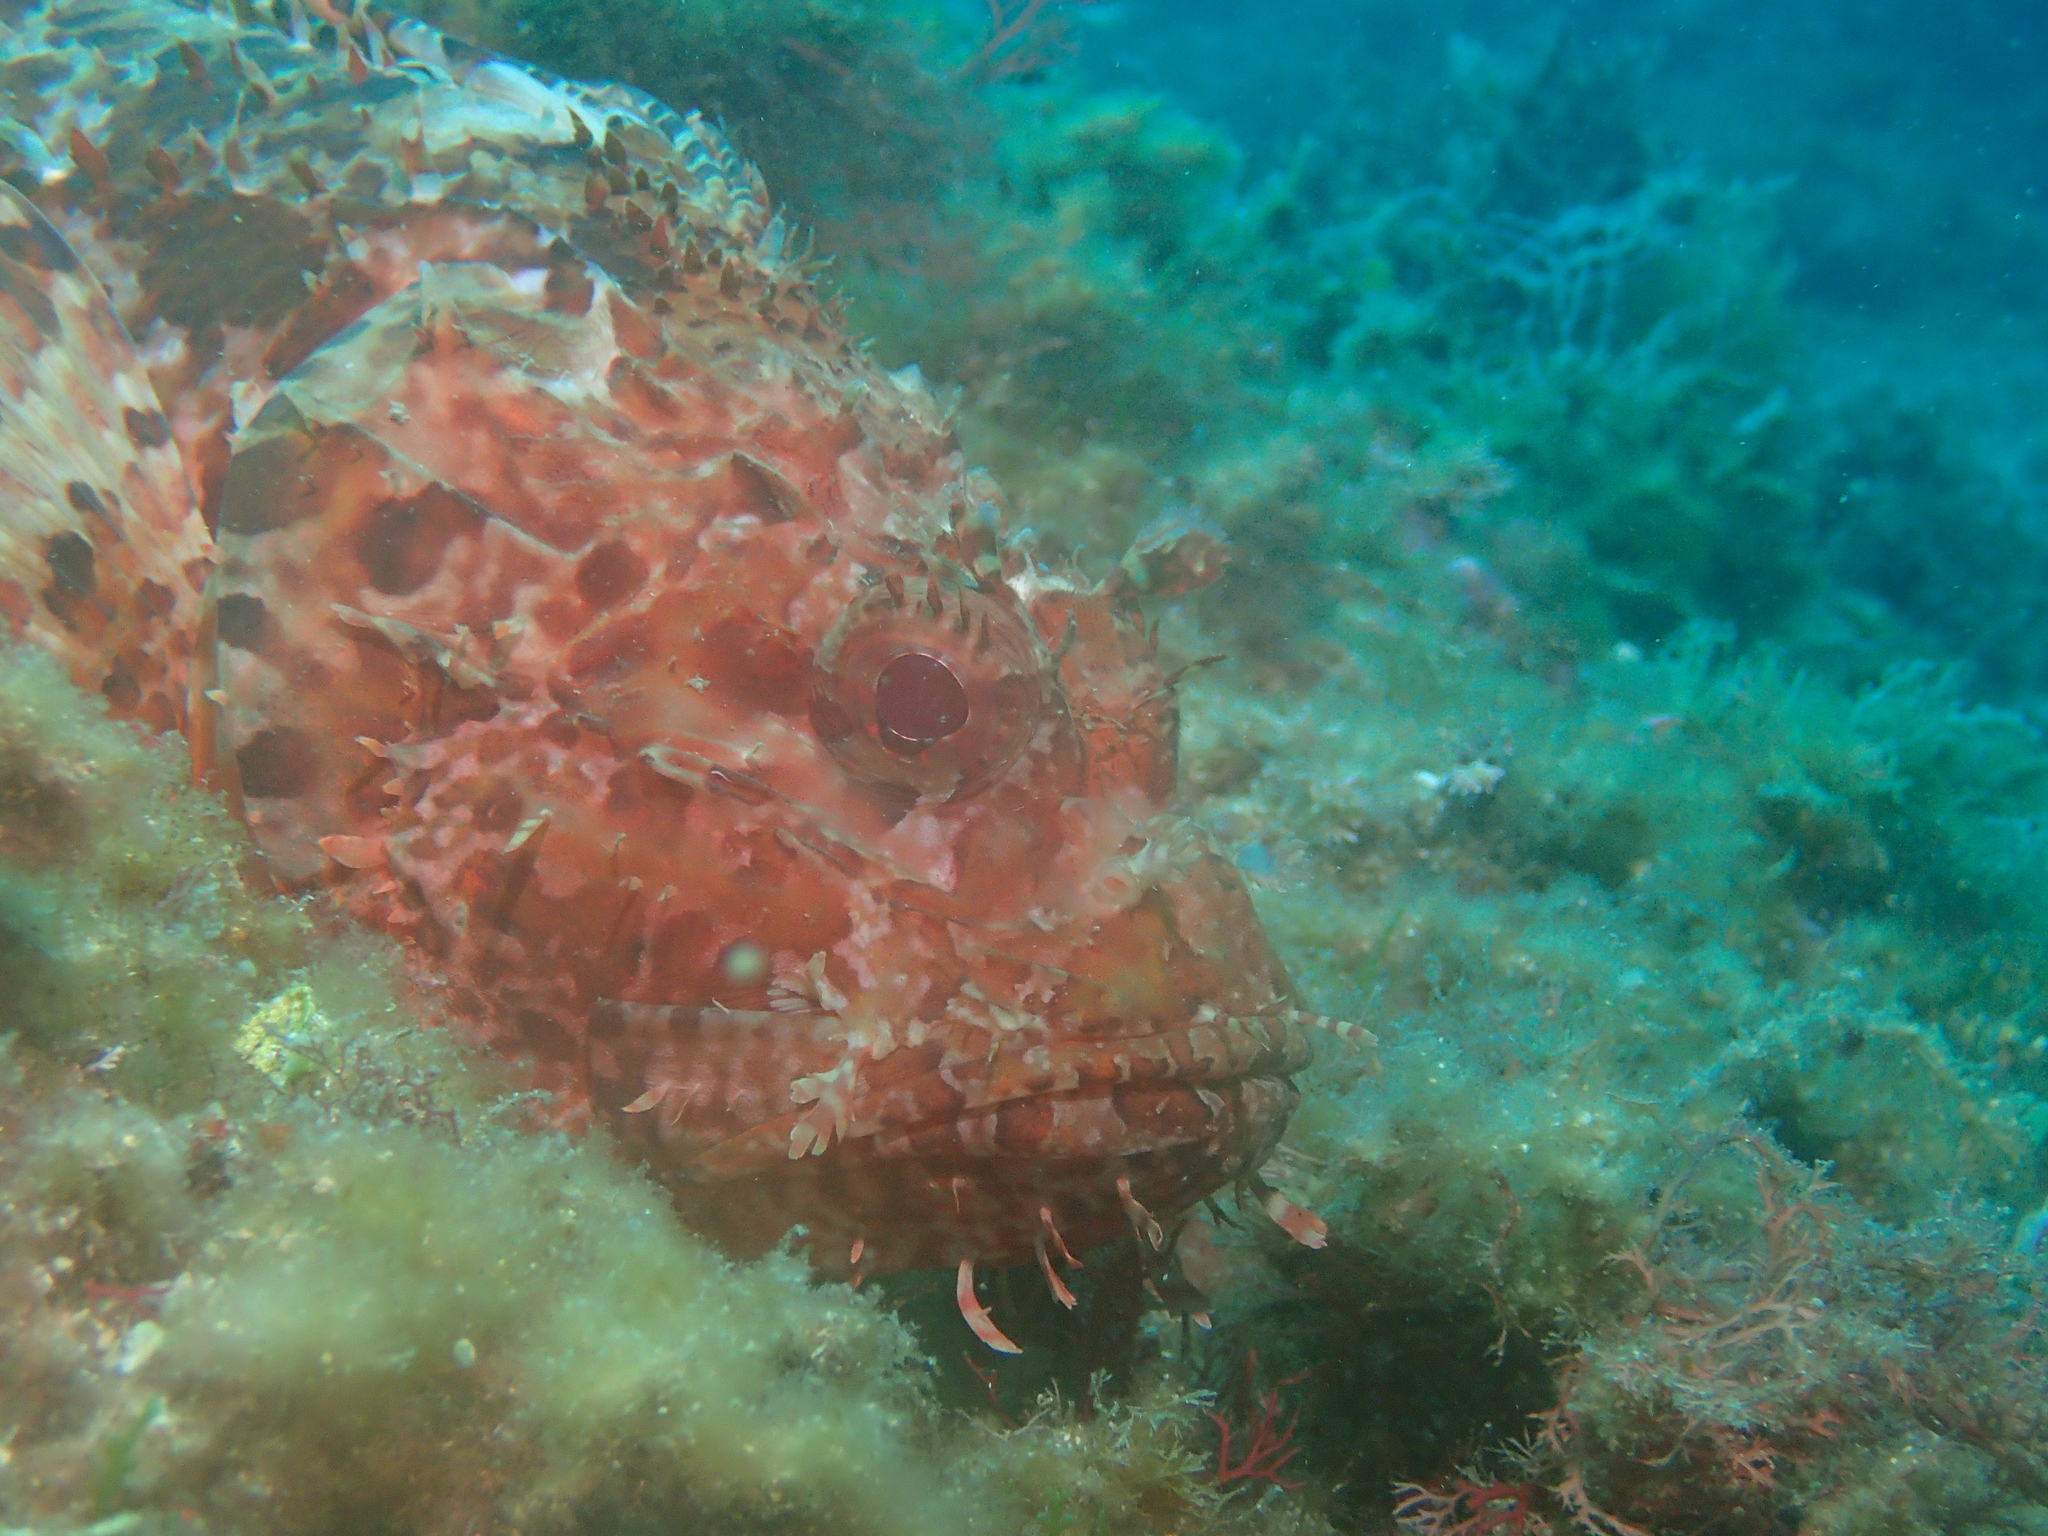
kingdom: Animalia
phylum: Chordata
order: Scorpaeniformes
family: Scorpaenidae
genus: Scorpaena
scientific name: Scorpaena scrofa
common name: Red scorpionfish
